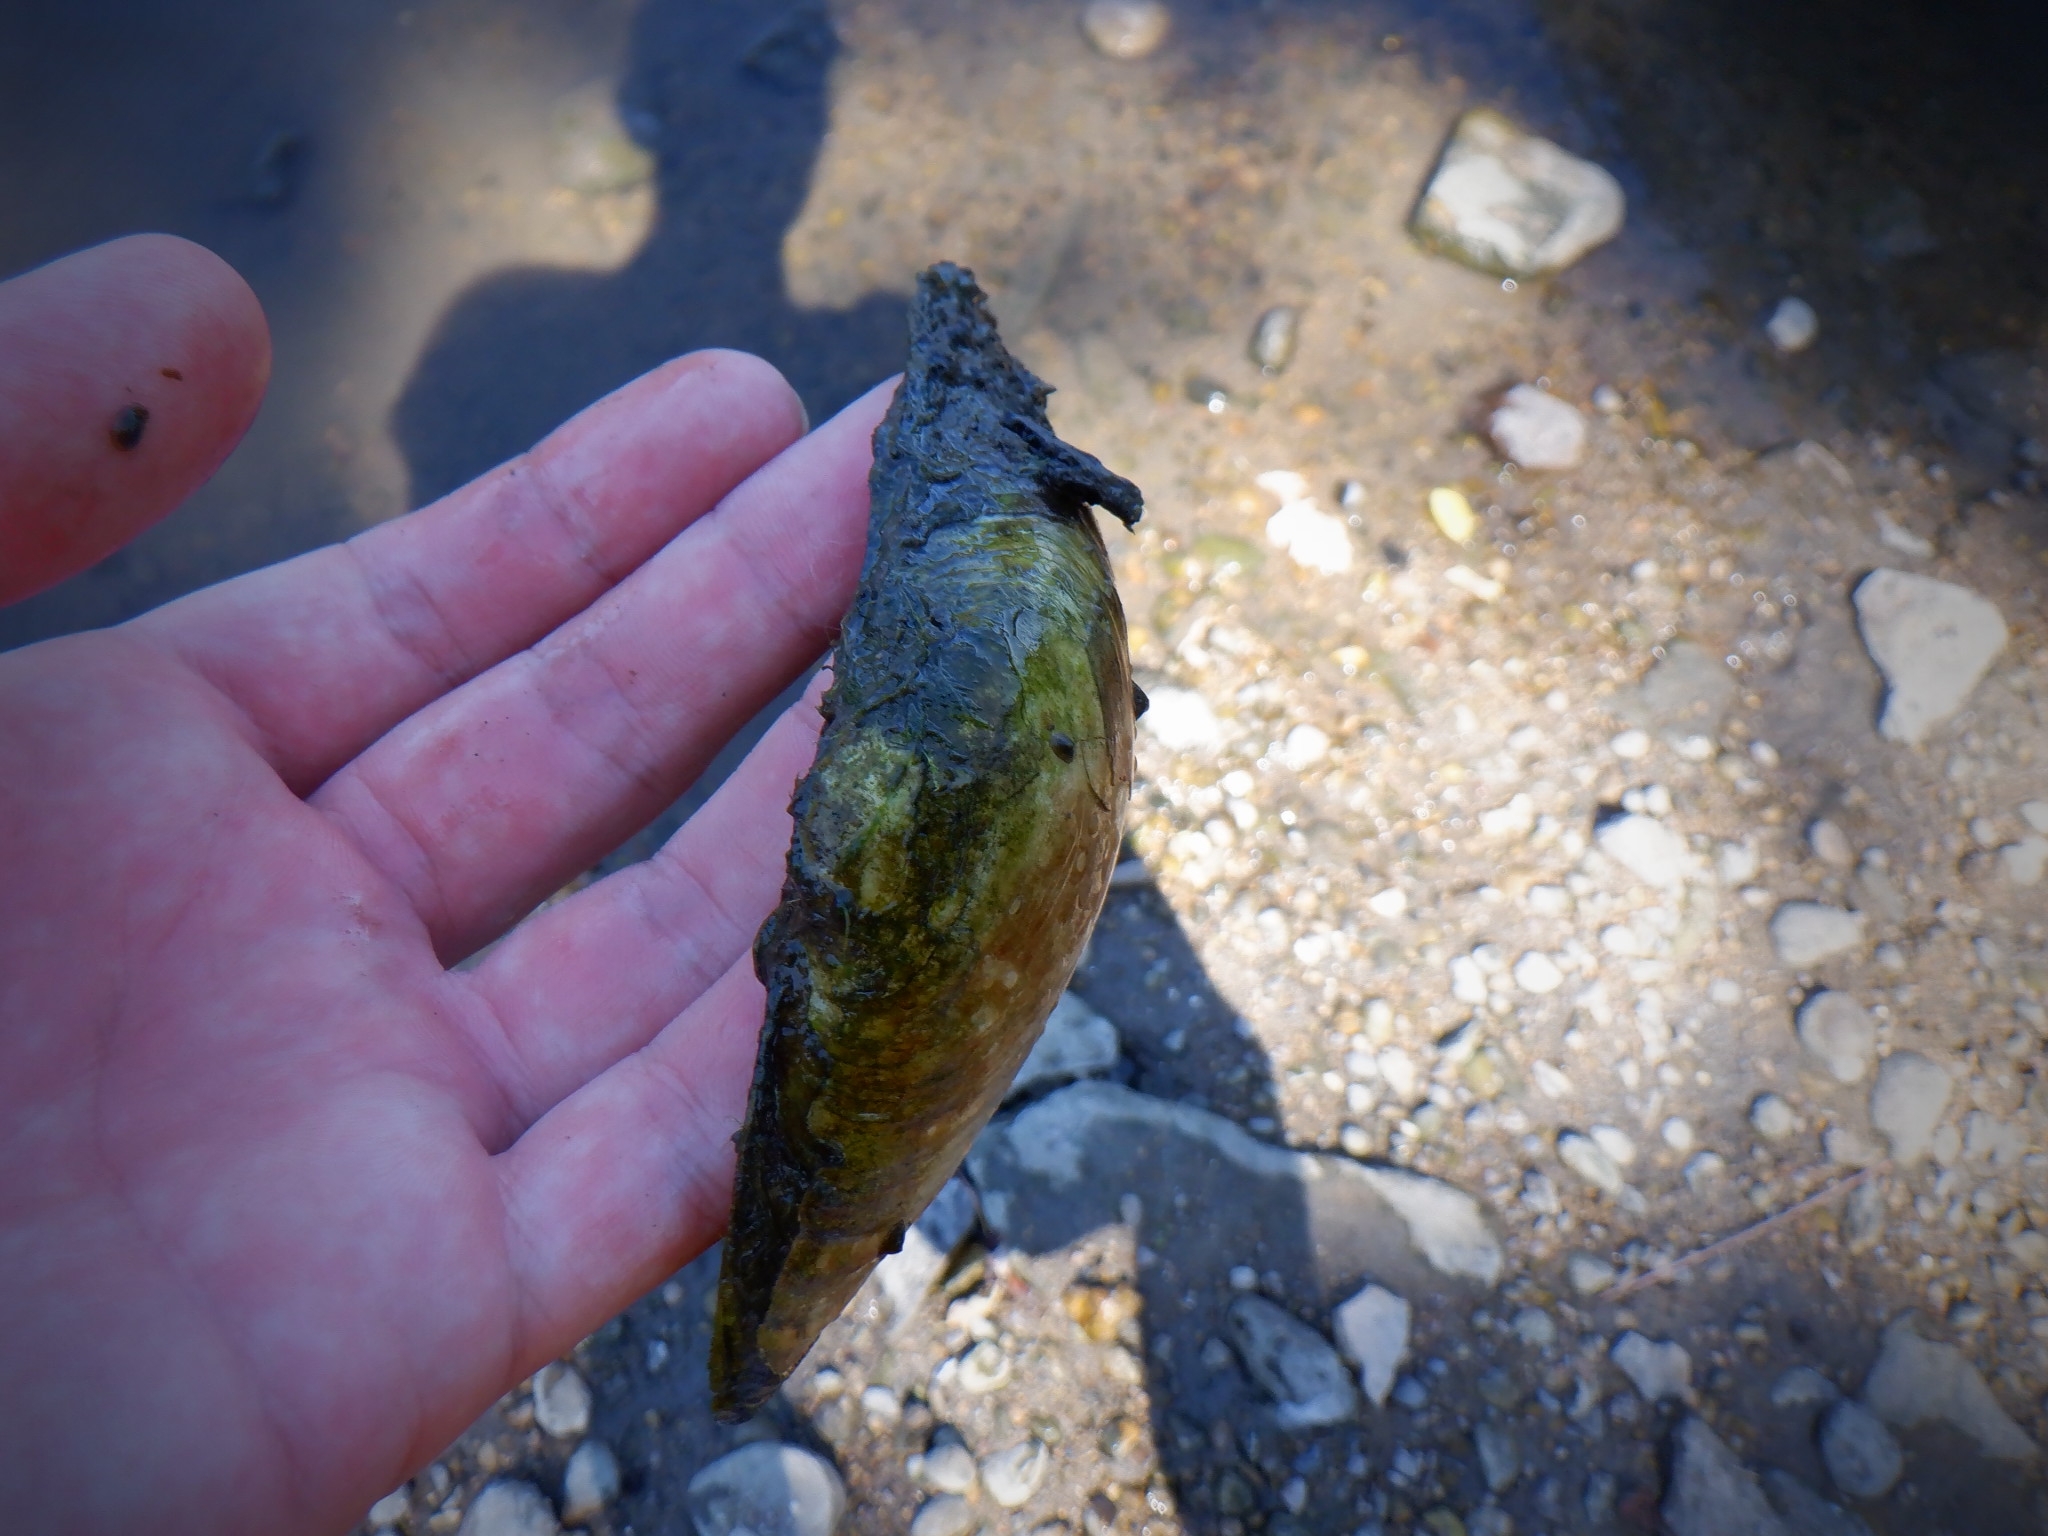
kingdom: Animalia
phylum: Mollusca
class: Bivalvia
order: Unionida
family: Unionidae
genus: Lampsilis
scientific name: Lampsilis cardium
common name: Plain pocketbook
